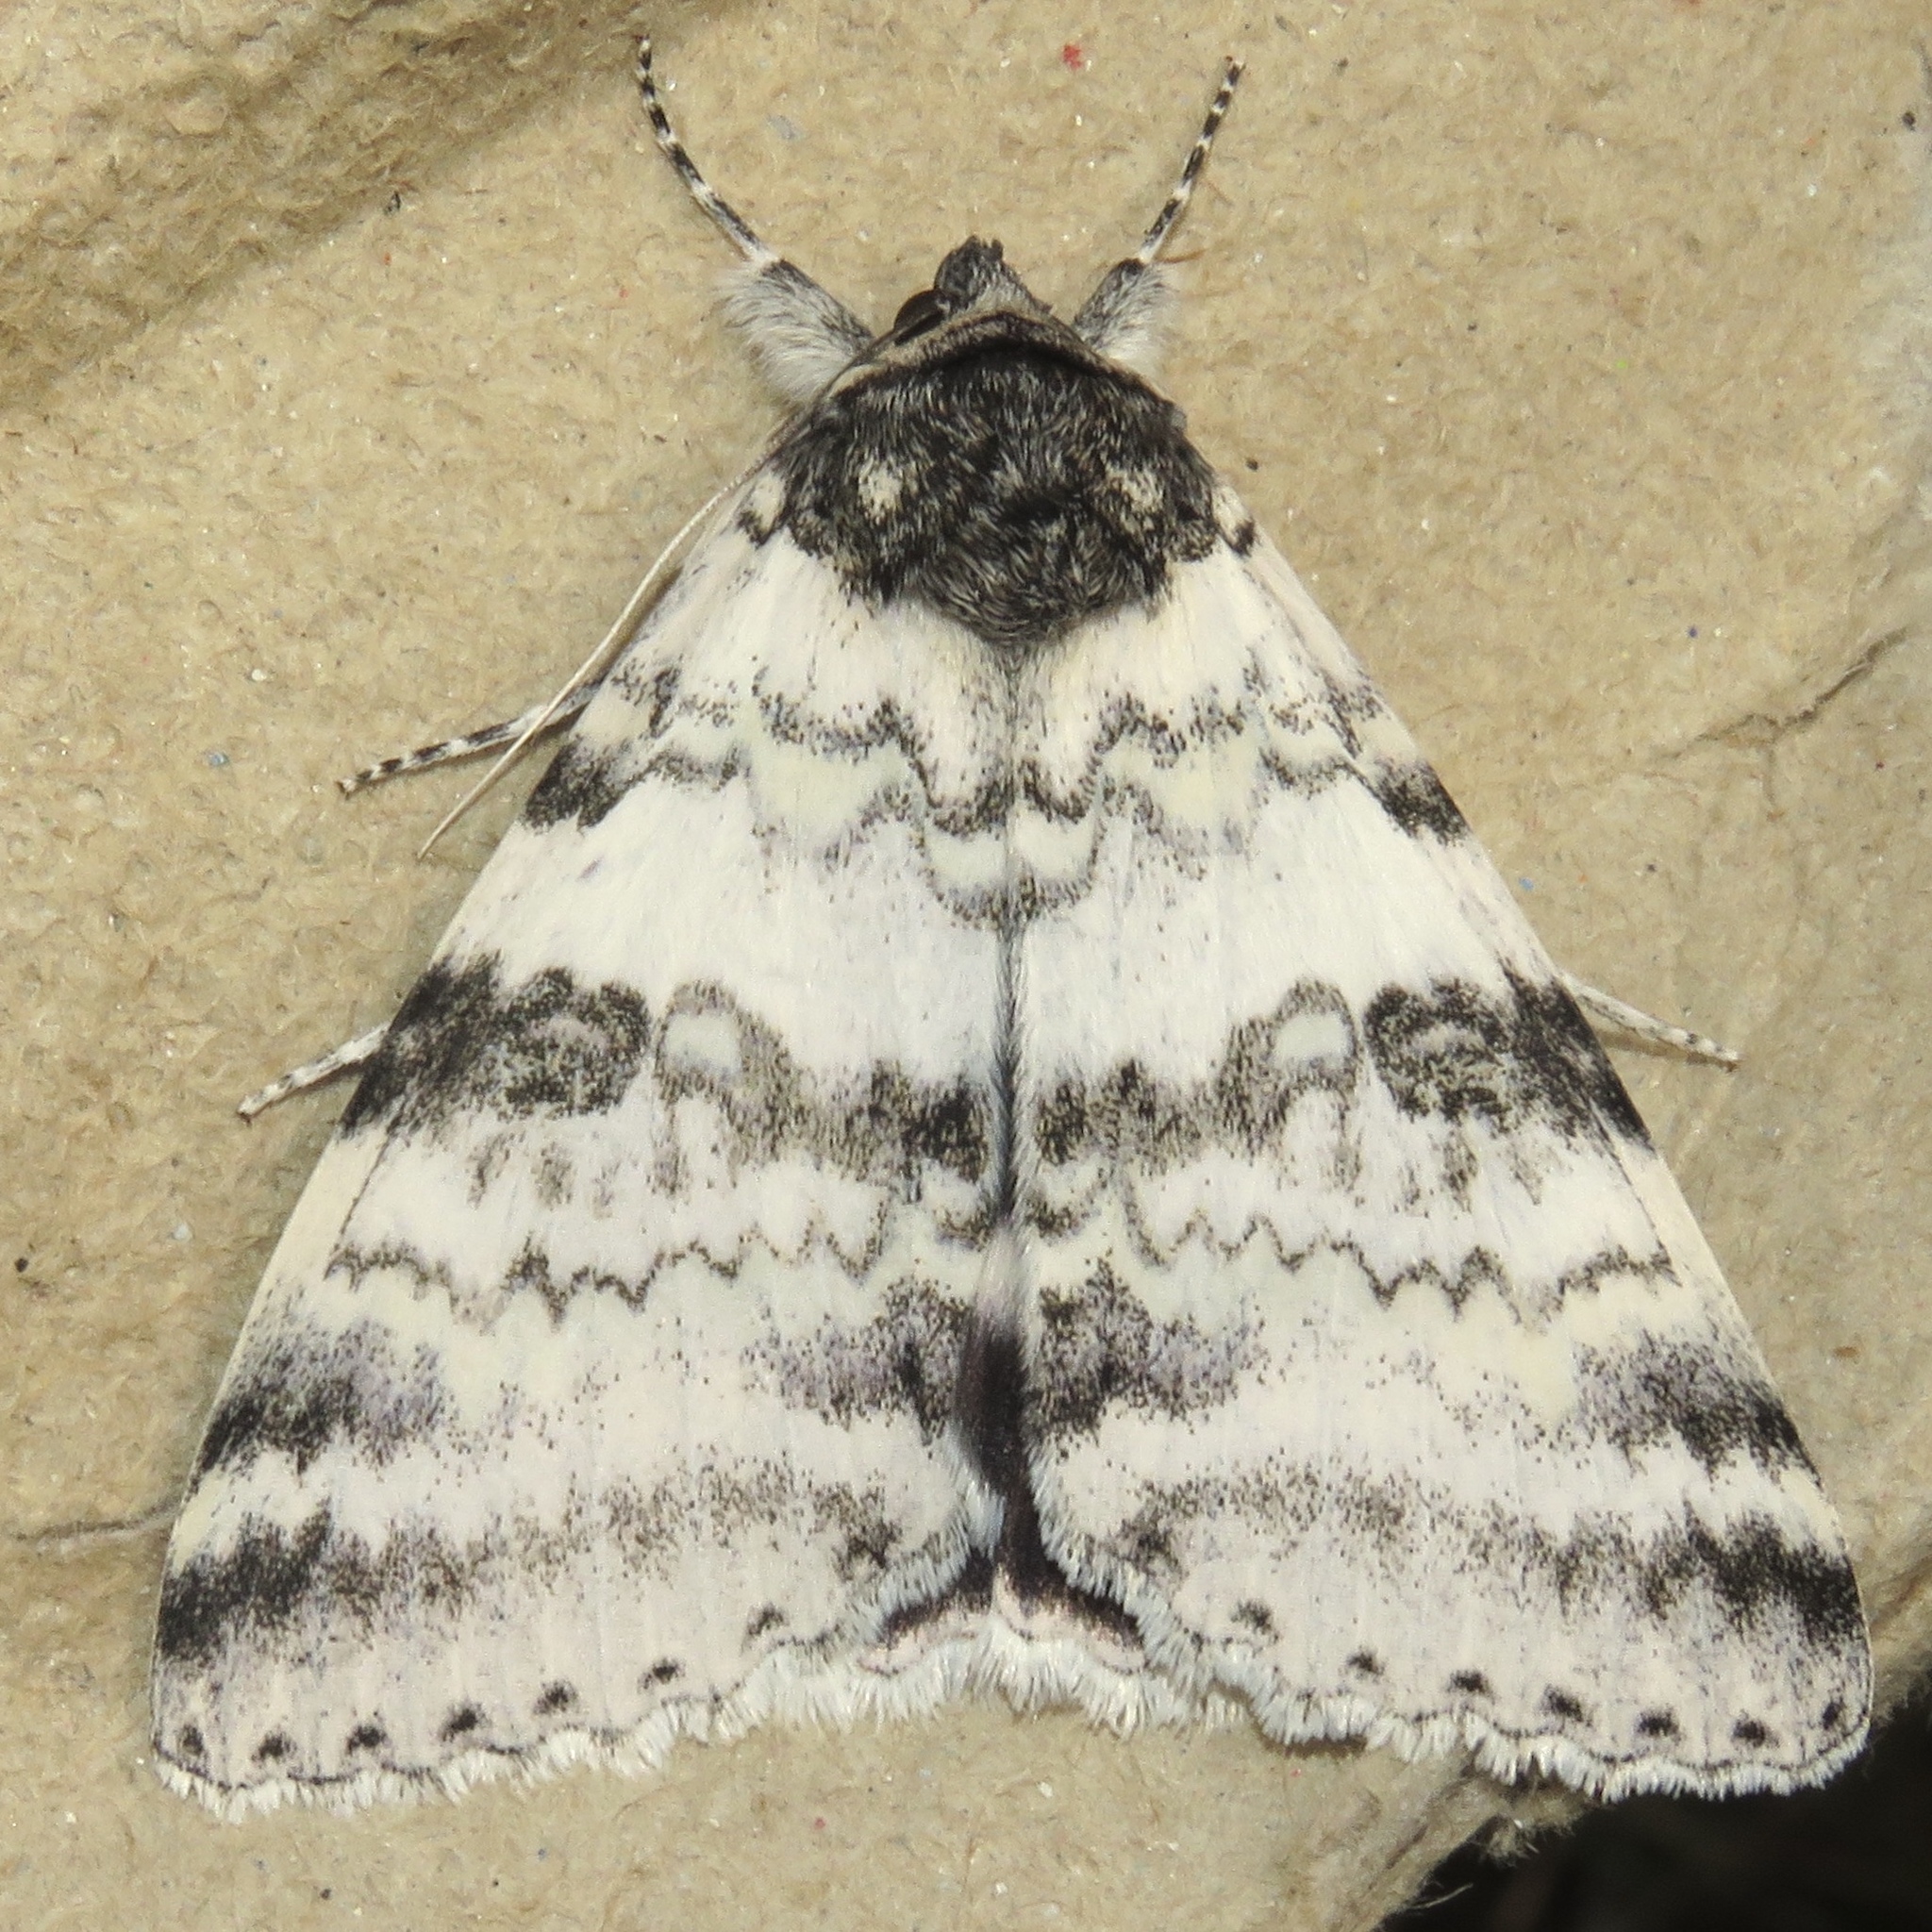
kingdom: Animalia
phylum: Arthropoda
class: Insecta
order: Lepidoptera
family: Erebidae
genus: Catocala
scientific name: Catocala relicta
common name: White underwing
